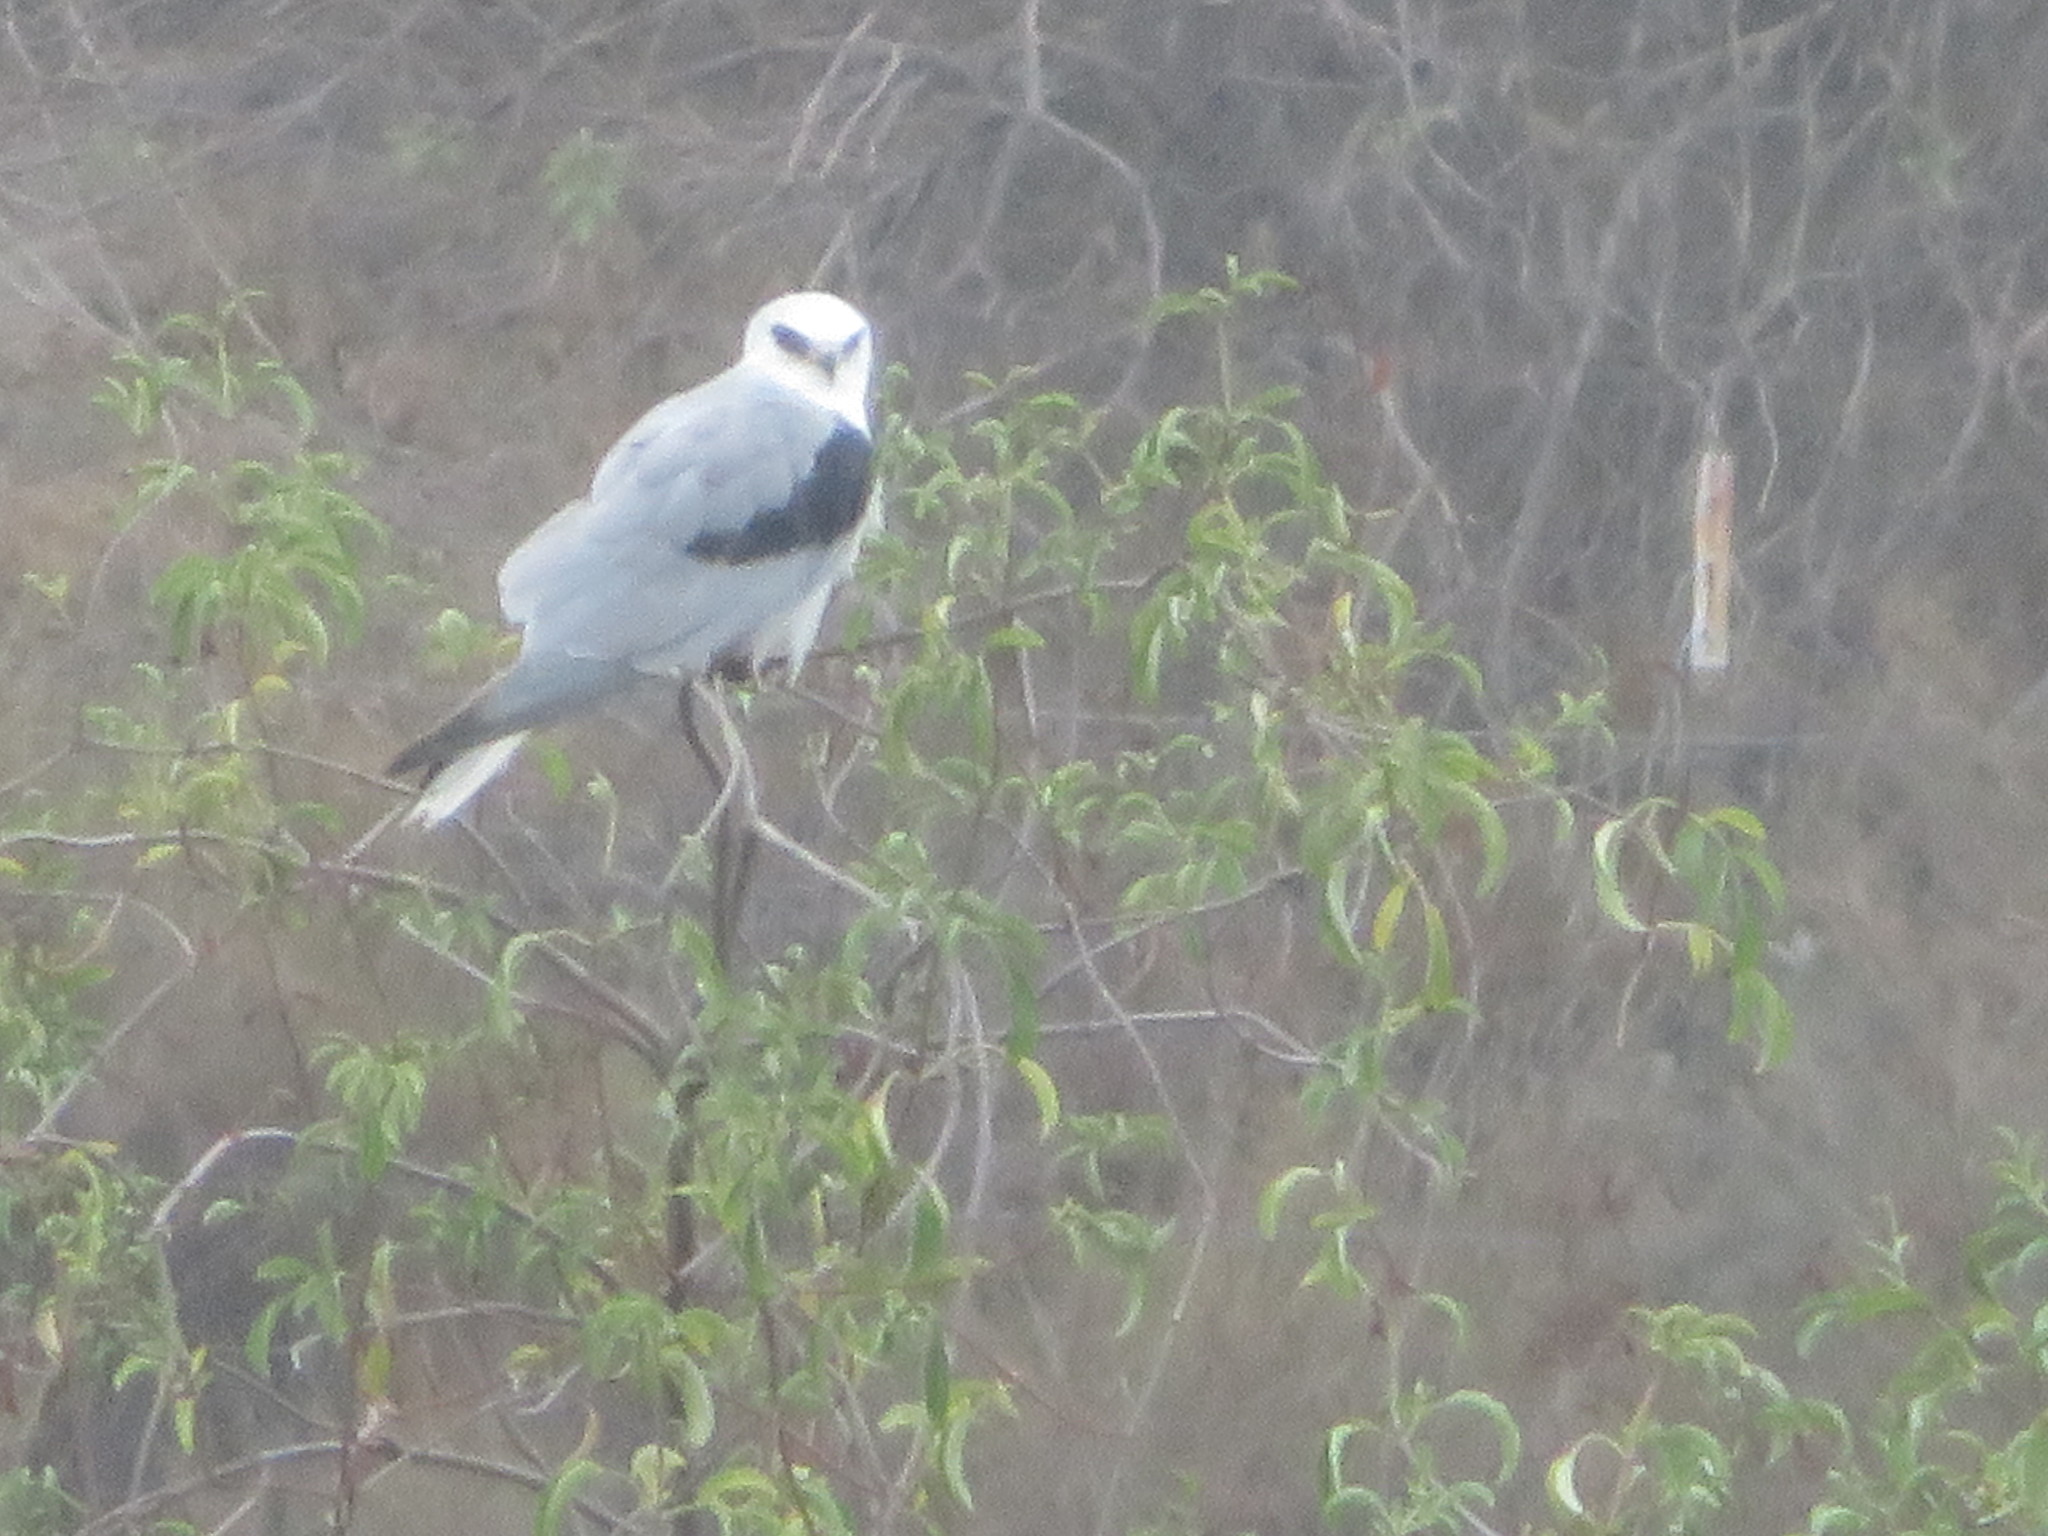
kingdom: Animalia
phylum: Chordata
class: Aves
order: Accipitriformes
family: Accipitridae
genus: Elanus
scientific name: Elanus leucurus
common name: White-tailed kite
